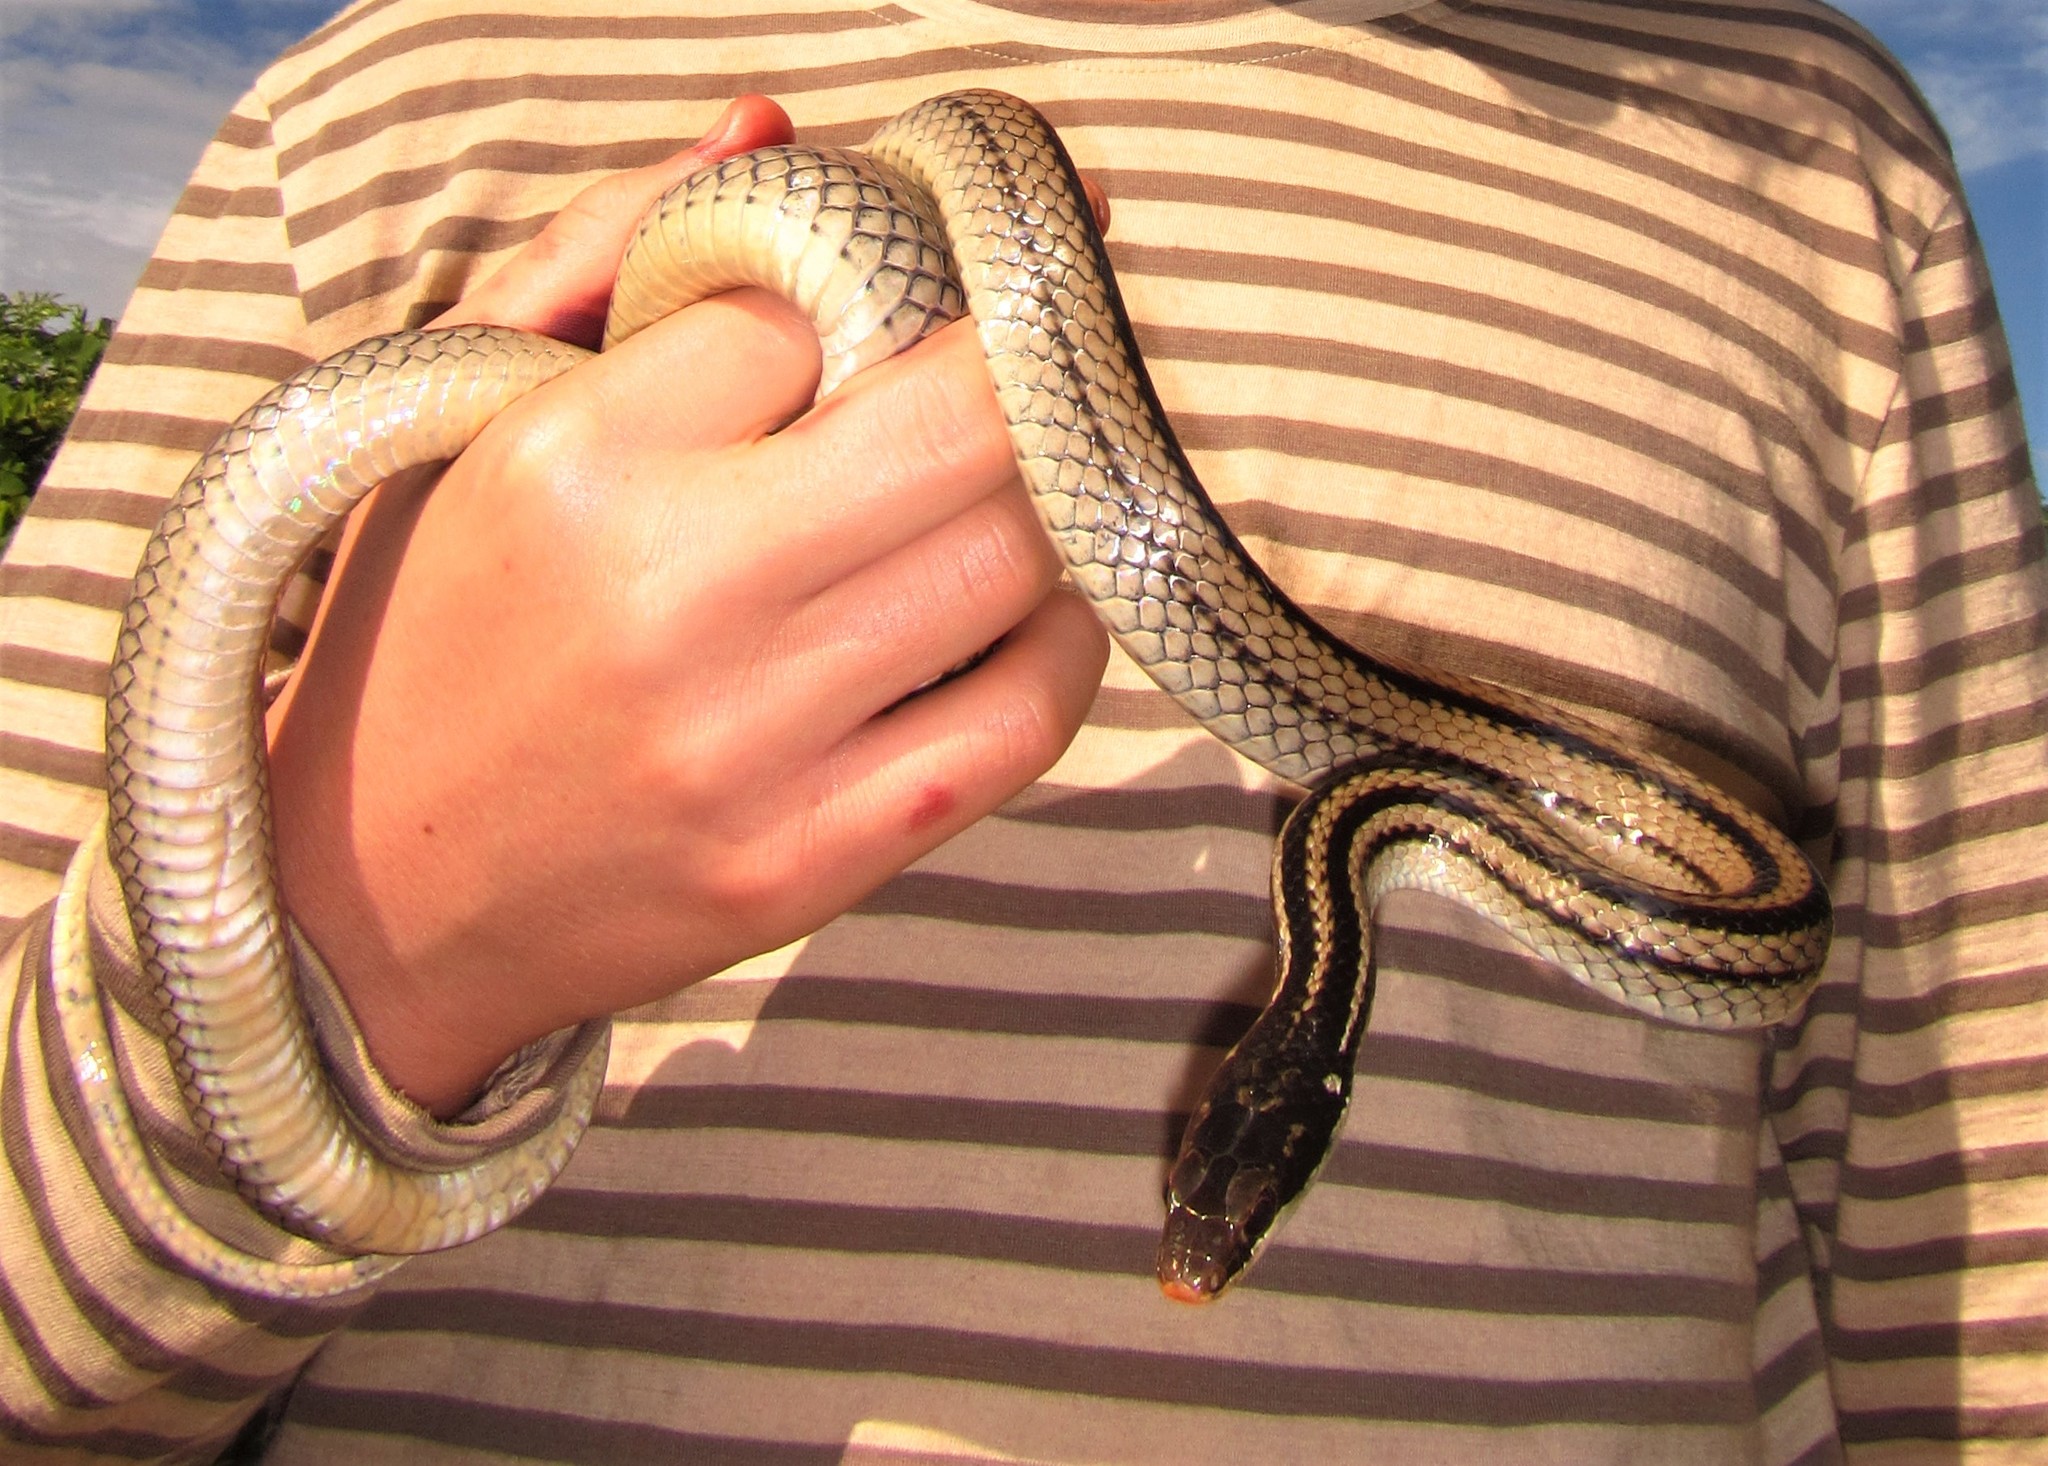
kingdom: Animalia
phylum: Chordata
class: Squamata
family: Pseudoxyrhophiidae
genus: Dromicodryas
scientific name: Dromicodryas quadrilineatus
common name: Four-striped snake
